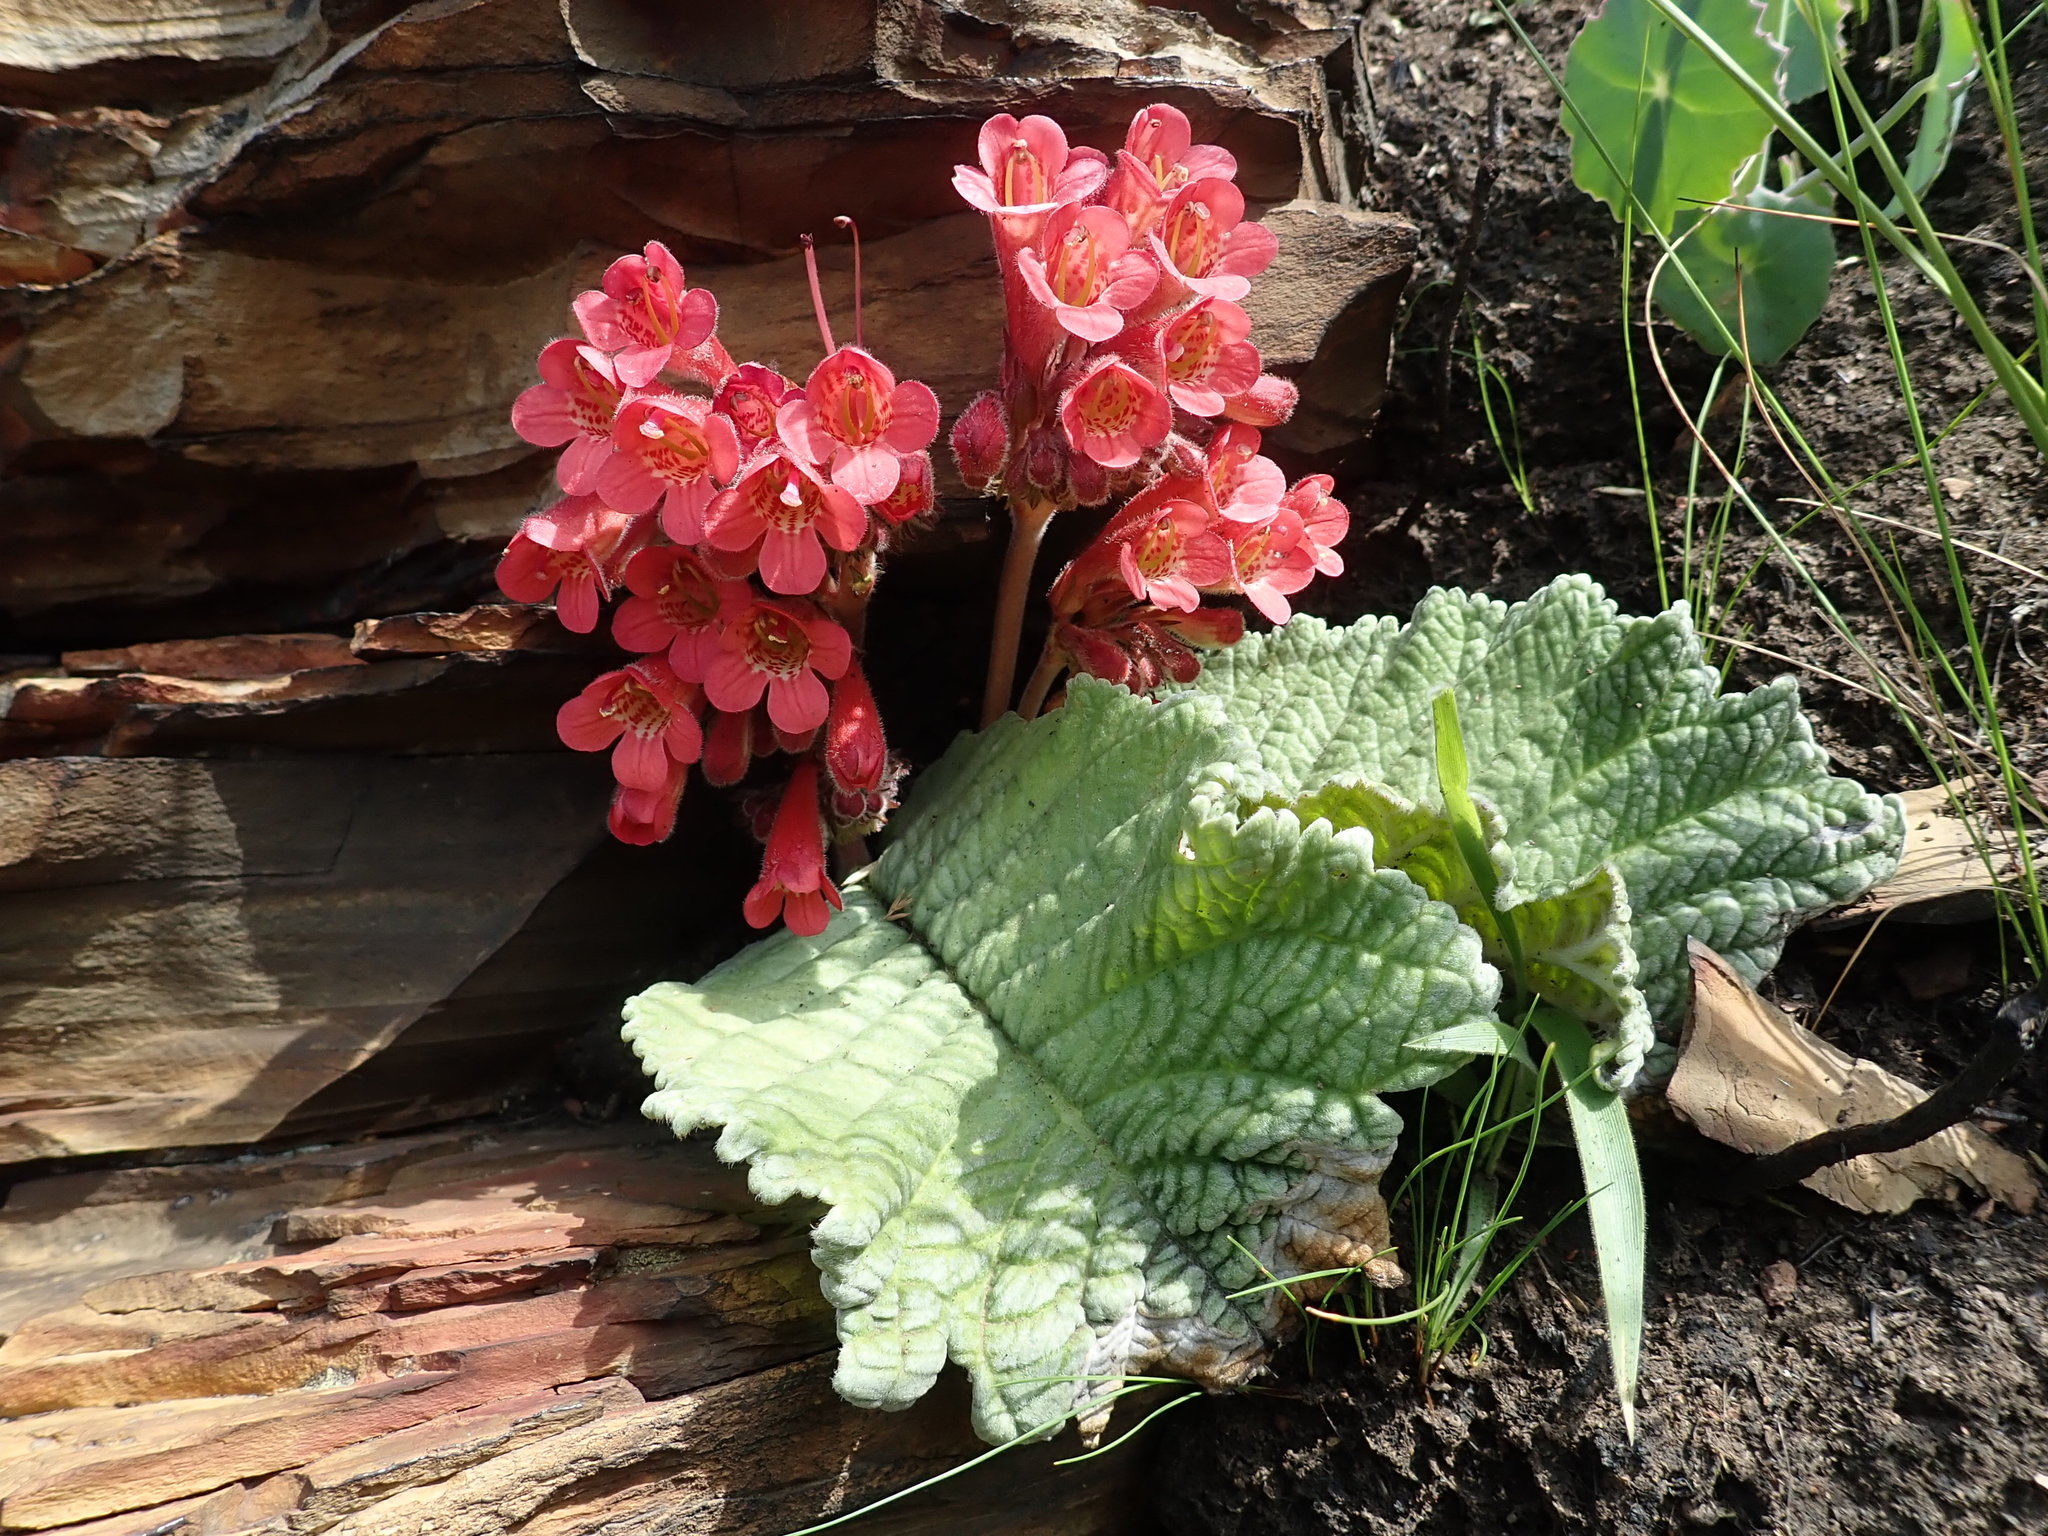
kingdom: Plantae
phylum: Tracheophyta
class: Magnoliopsida
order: Lamiales
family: Gesneriaceae
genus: Streptocarpus
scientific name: Streptocarpus dunnii
